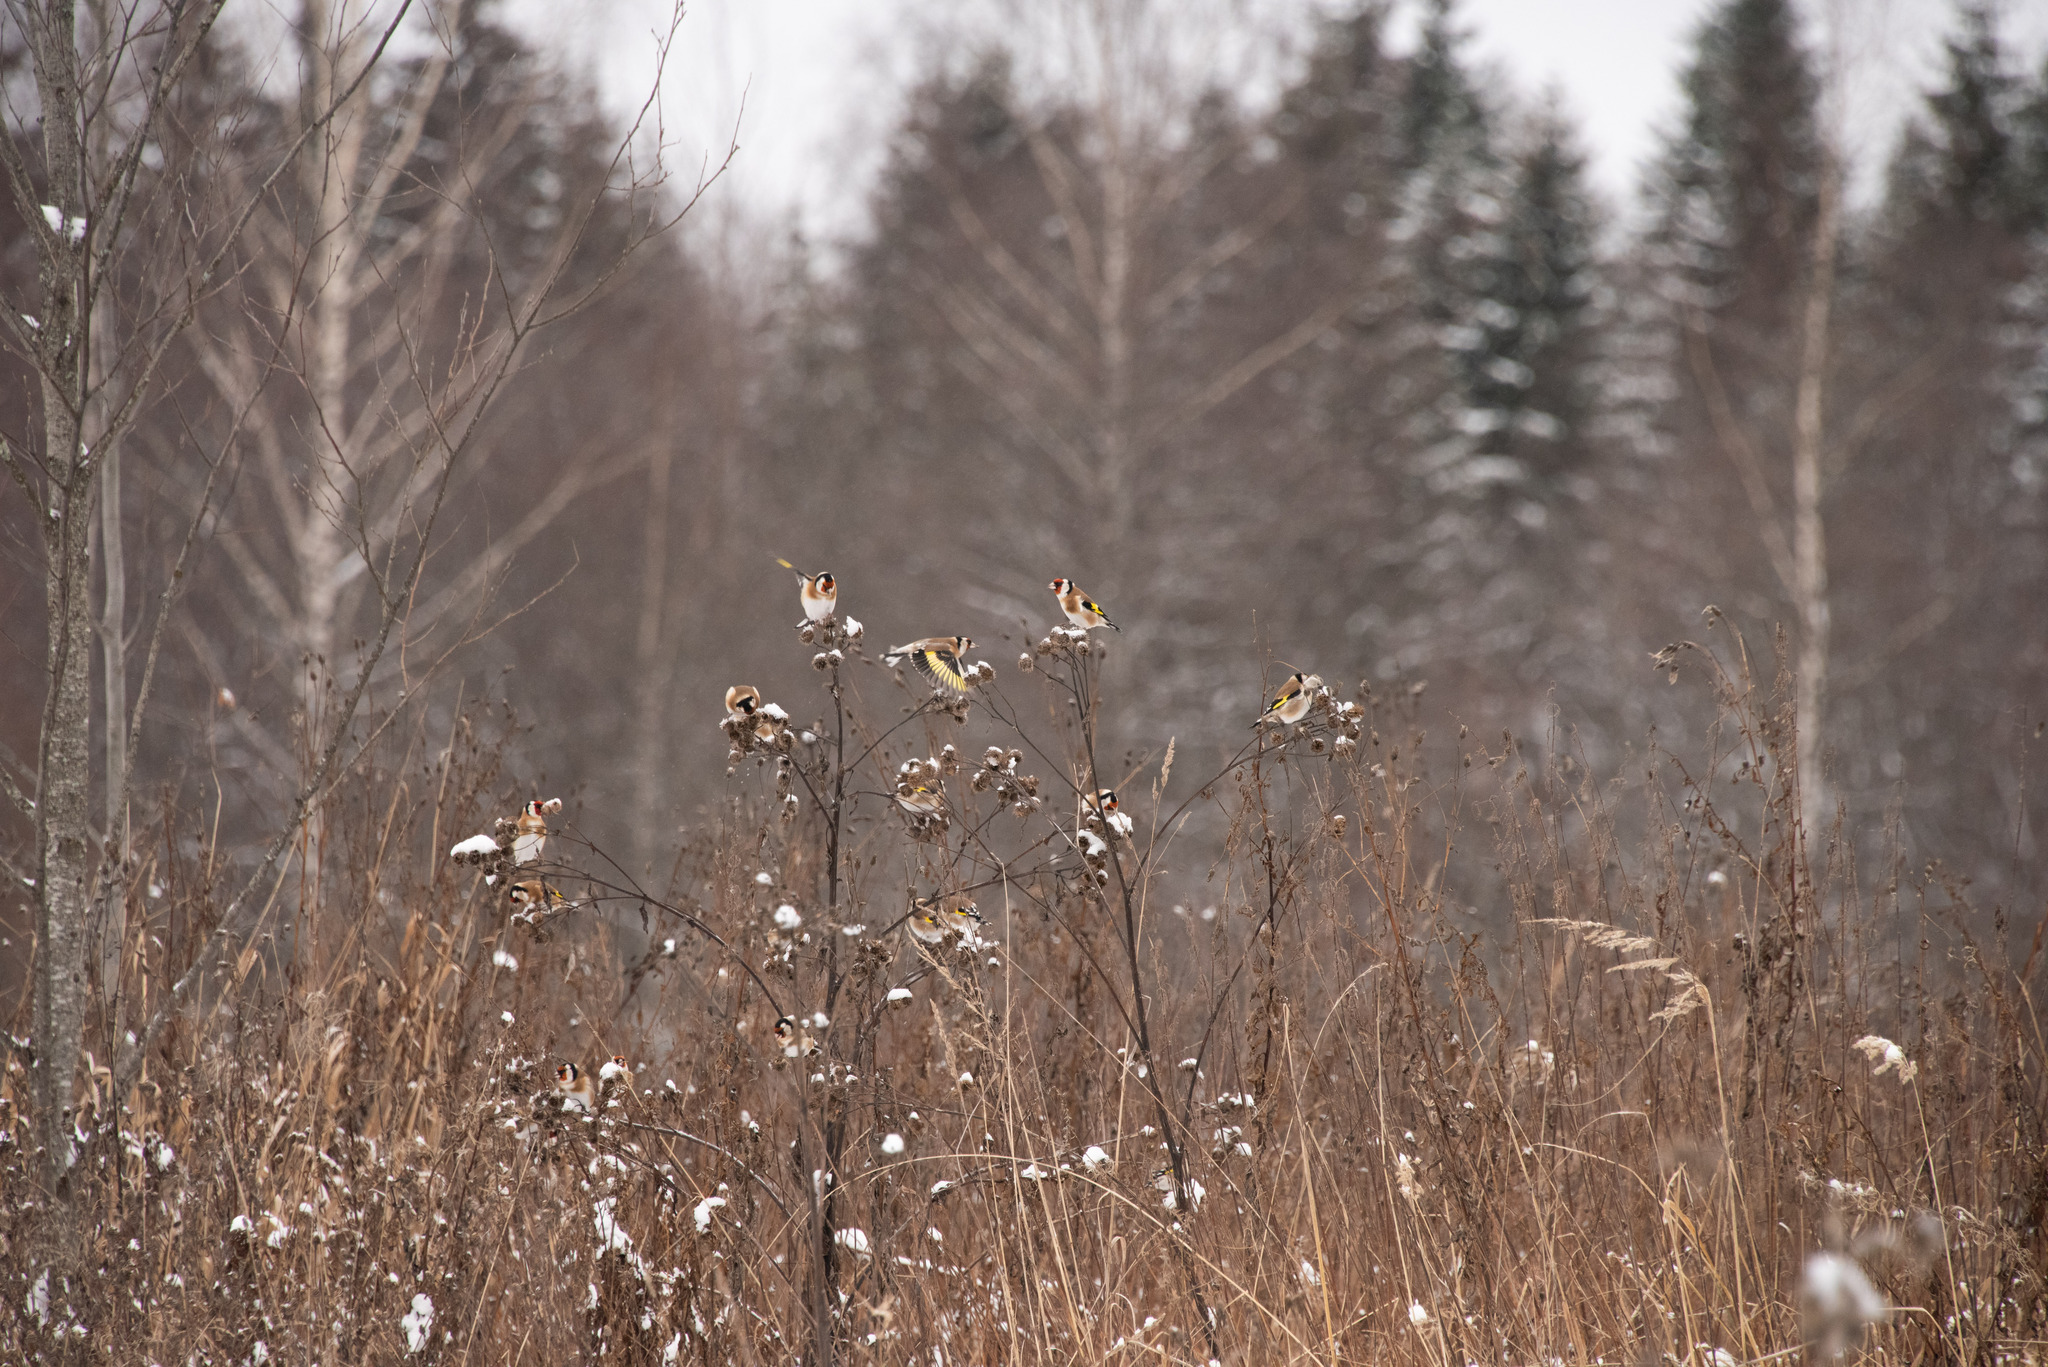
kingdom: Animalia
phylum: Chordata
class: Aves
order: Passeriformes
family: Fringillidae
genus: Carduelis
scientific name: Carduelis carduelis
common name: European goldfinch
